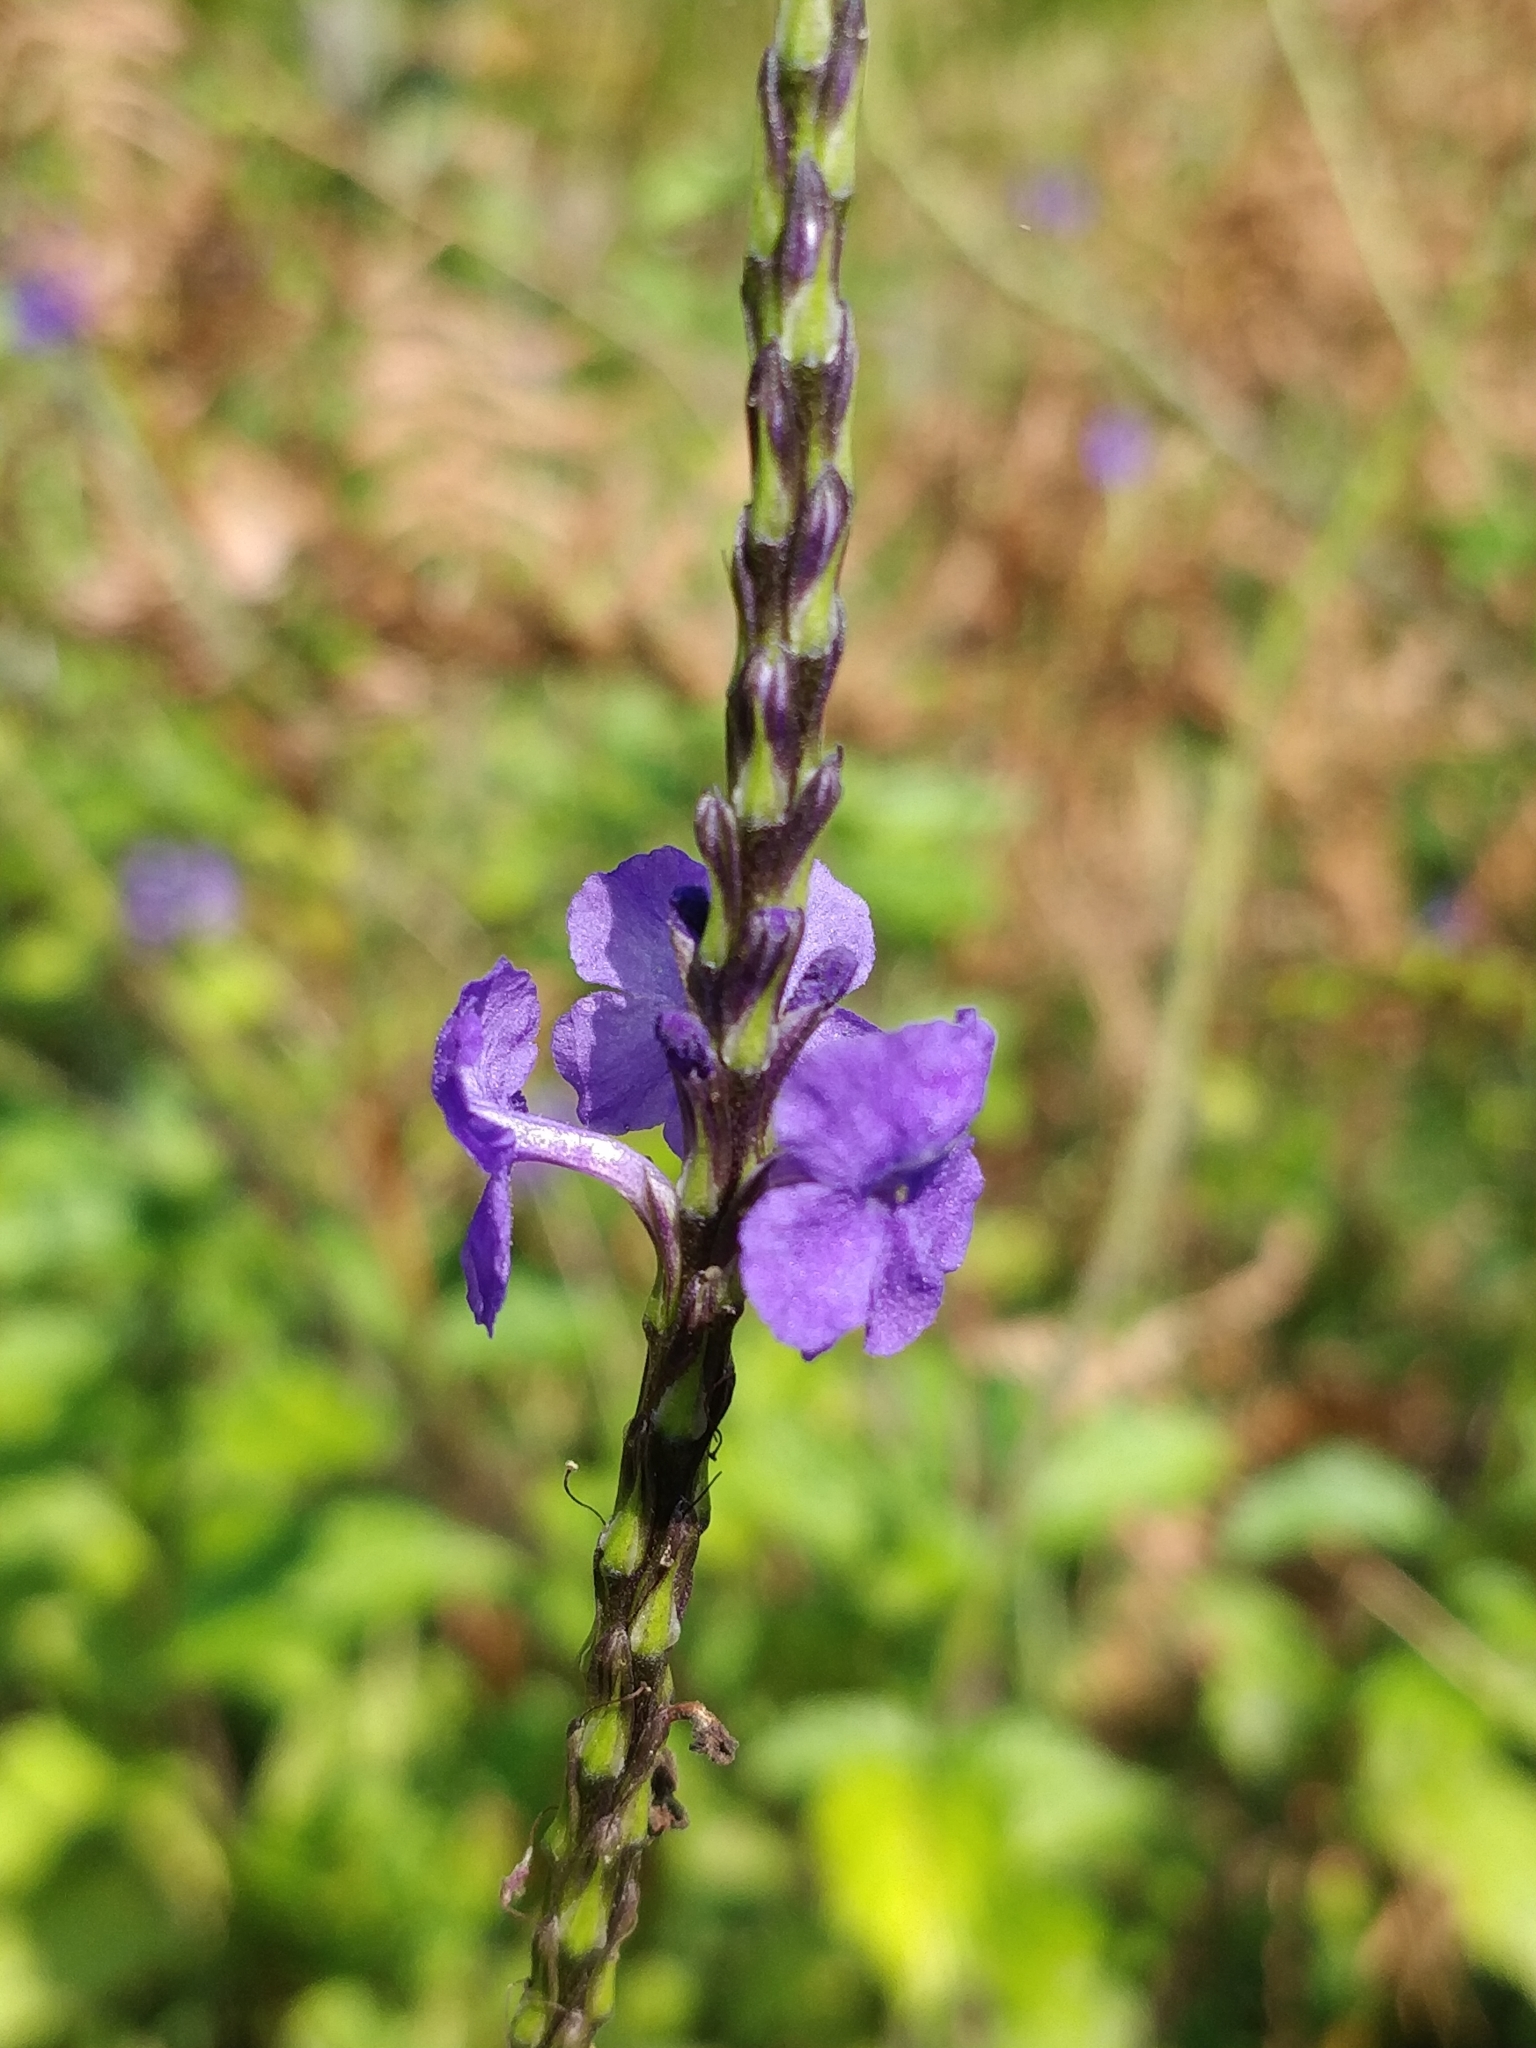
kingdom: Plantae
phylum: Tracheophyta
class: Magnoliopsida
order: Lamiales
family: Verbenaceae
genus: Stachytarpheta
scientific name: Stachytarpheta jamaicensis
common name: Light-blue snakeweed
